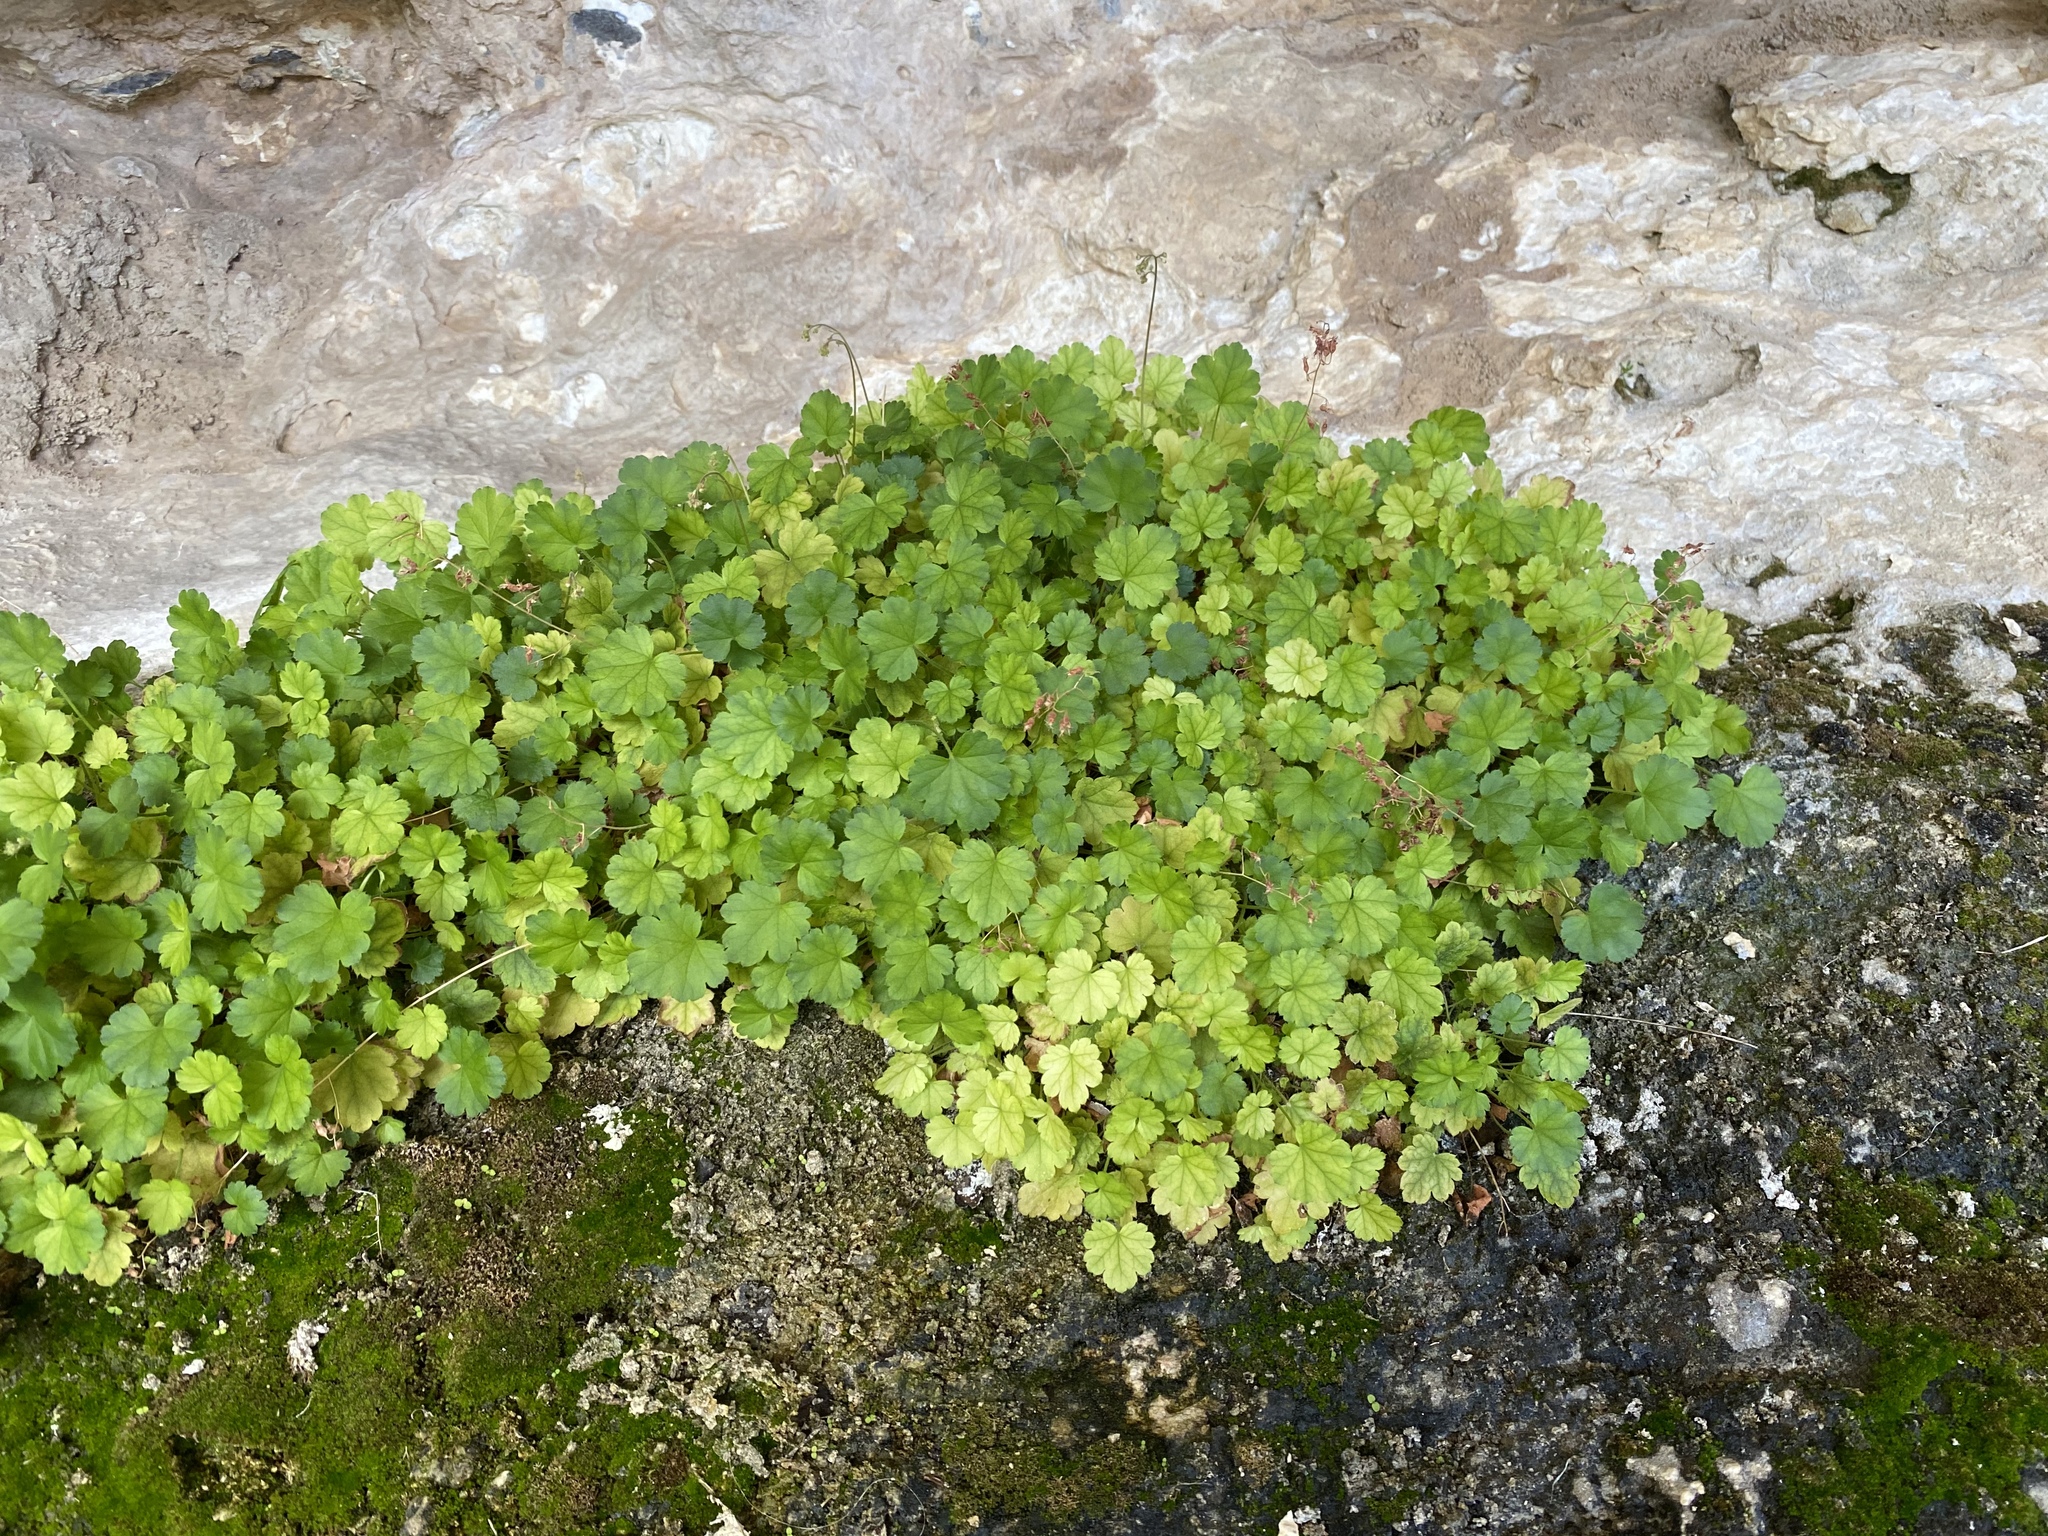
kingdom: Plantae
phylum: Tracheophyta
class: Magnoliopsida
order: Saxifragales
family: Saxifragaceae
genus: Heuchera
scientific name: Heuchera rubescens
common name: Jack-o'the-rocks
